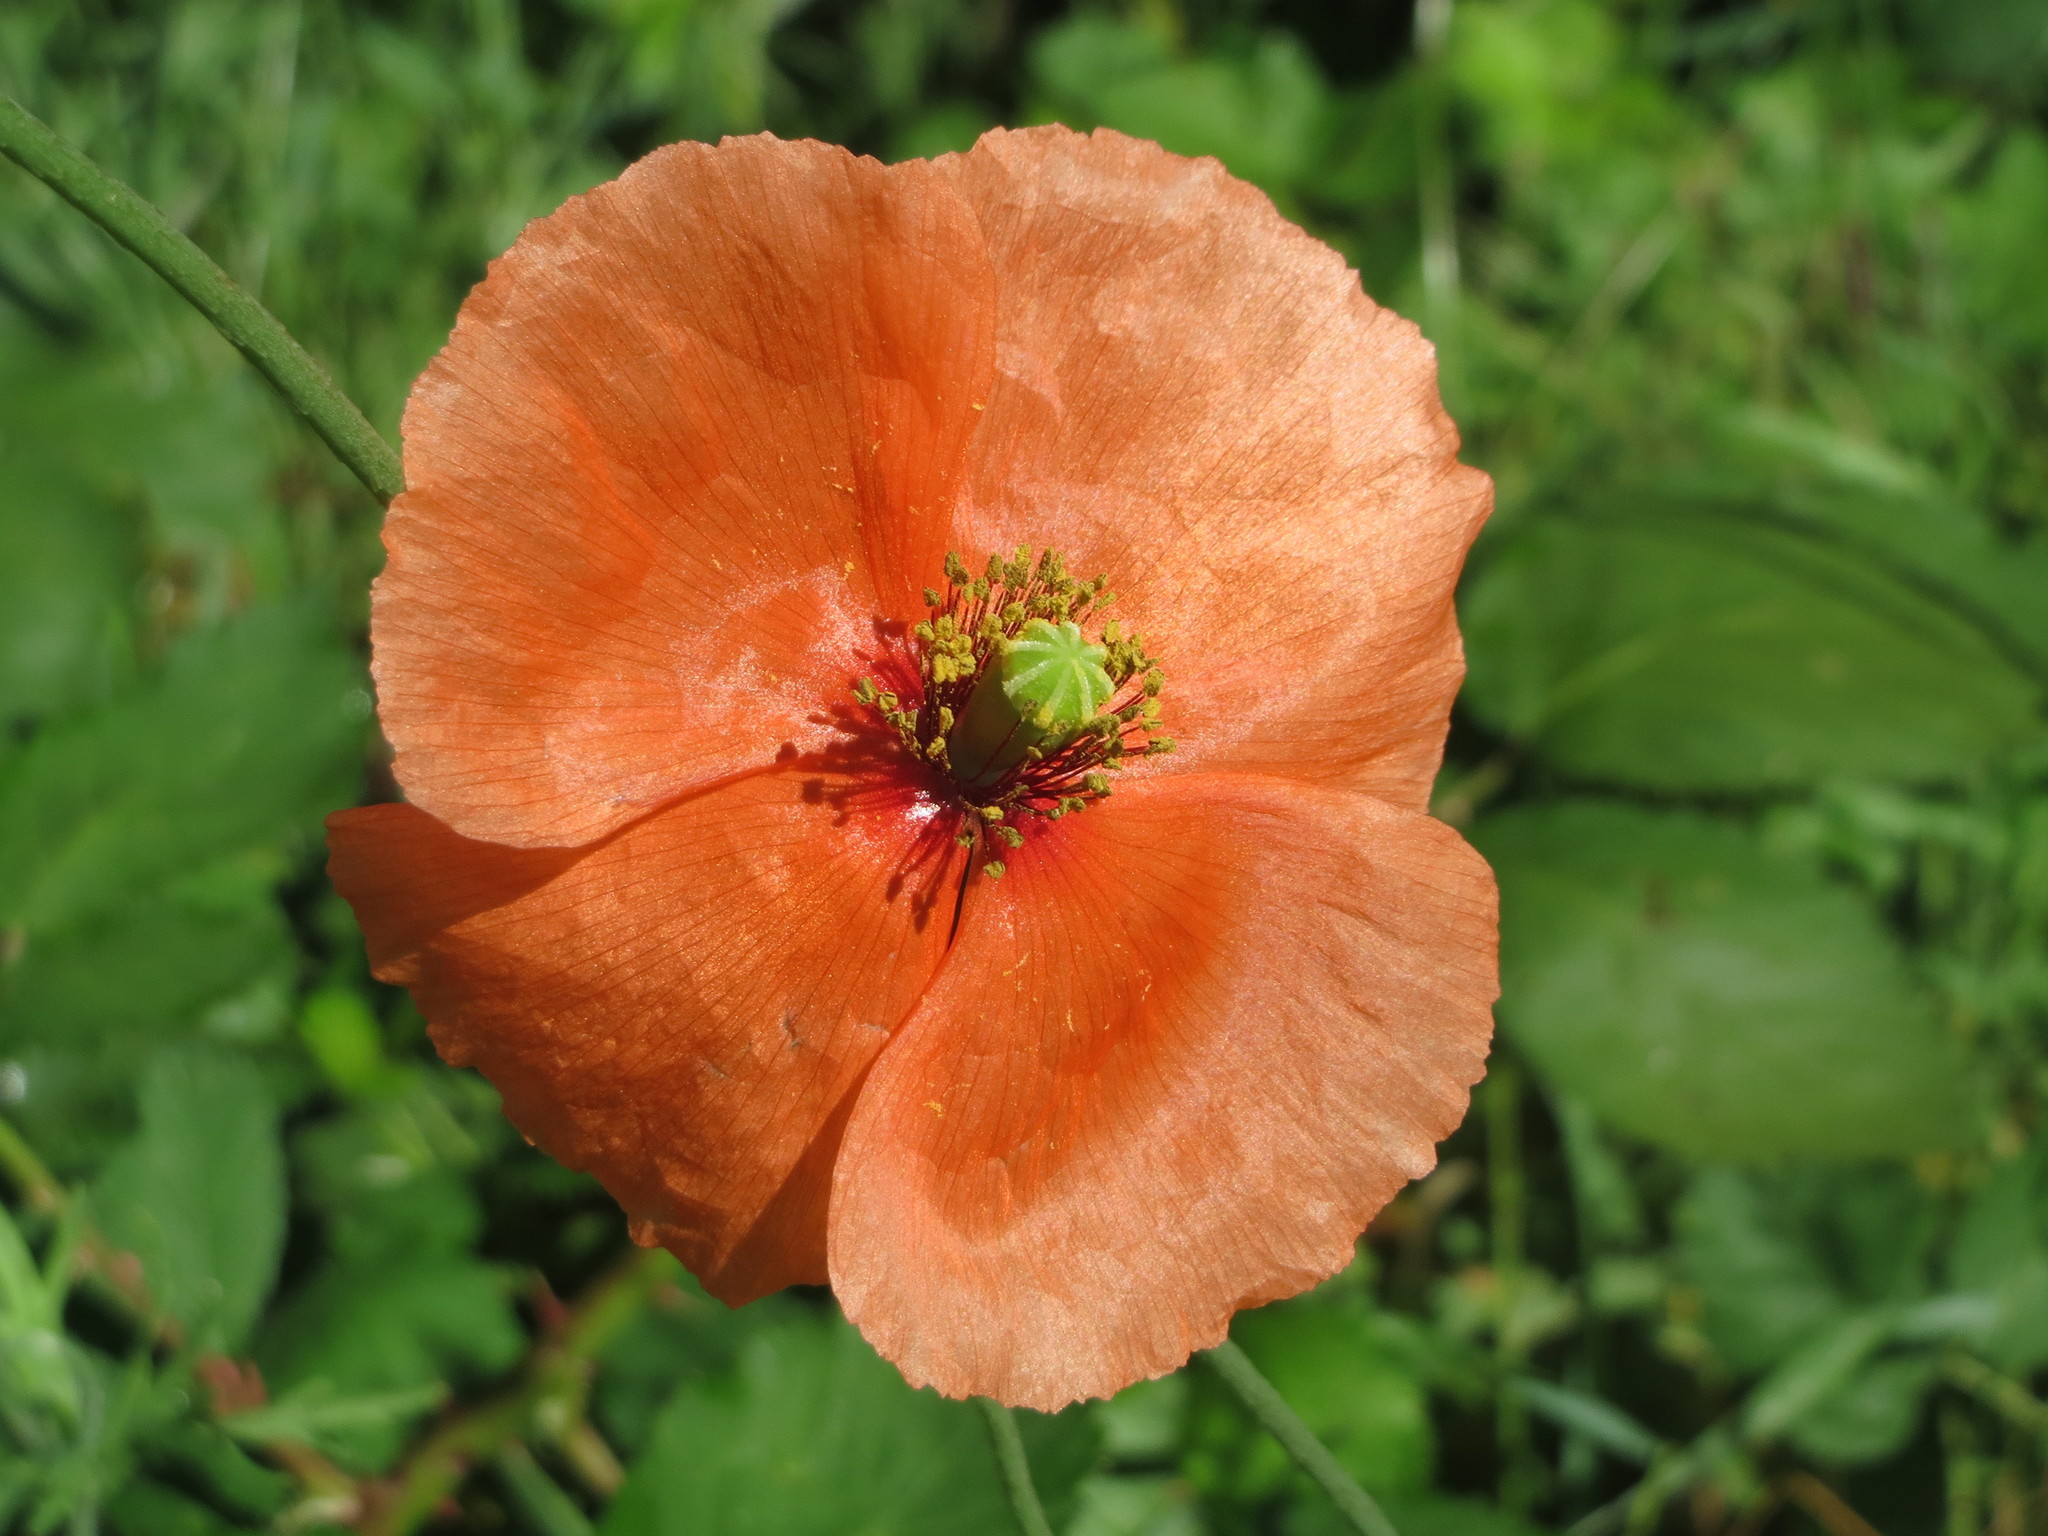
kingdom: Plantae
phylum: Tracheophyta
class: Magnoliopsida
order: Ranunculales
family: Papaveraceae
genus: Papaver
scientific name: Papaver rhoeas
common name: Corn poppy
